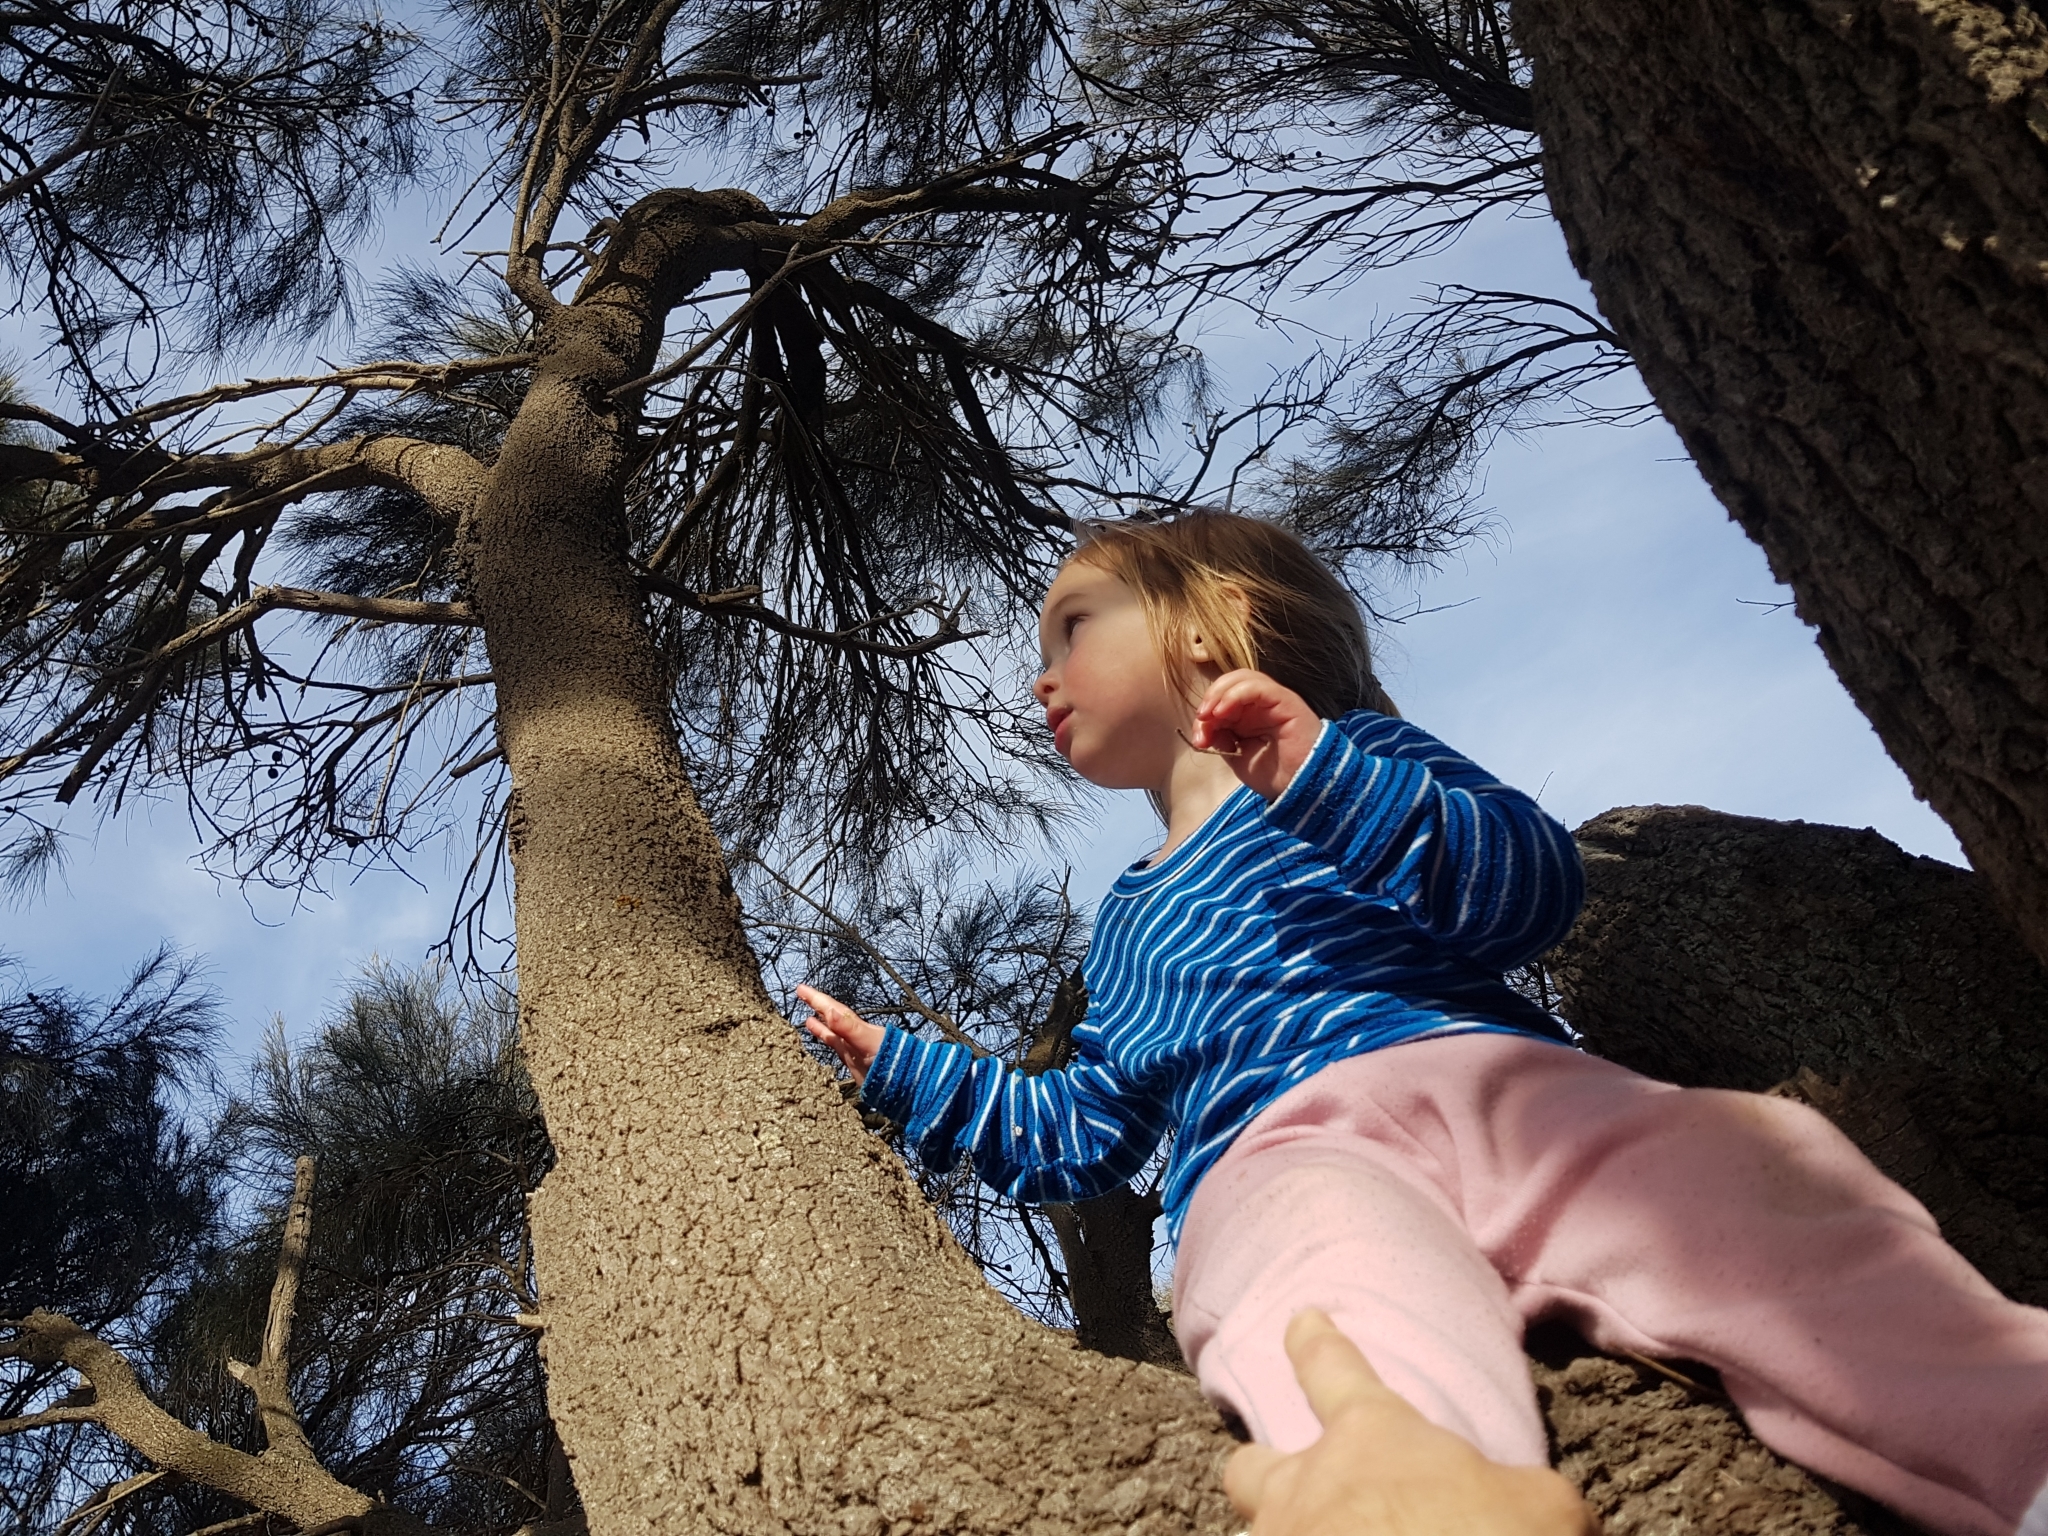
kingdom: Plantae
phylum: Tracheophyta
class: Magnoliopsida
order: Fagales
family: Casuarinaceae
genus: Allocasuarina
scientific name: Allocasuarina verticillata
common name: Drooping she-oak
